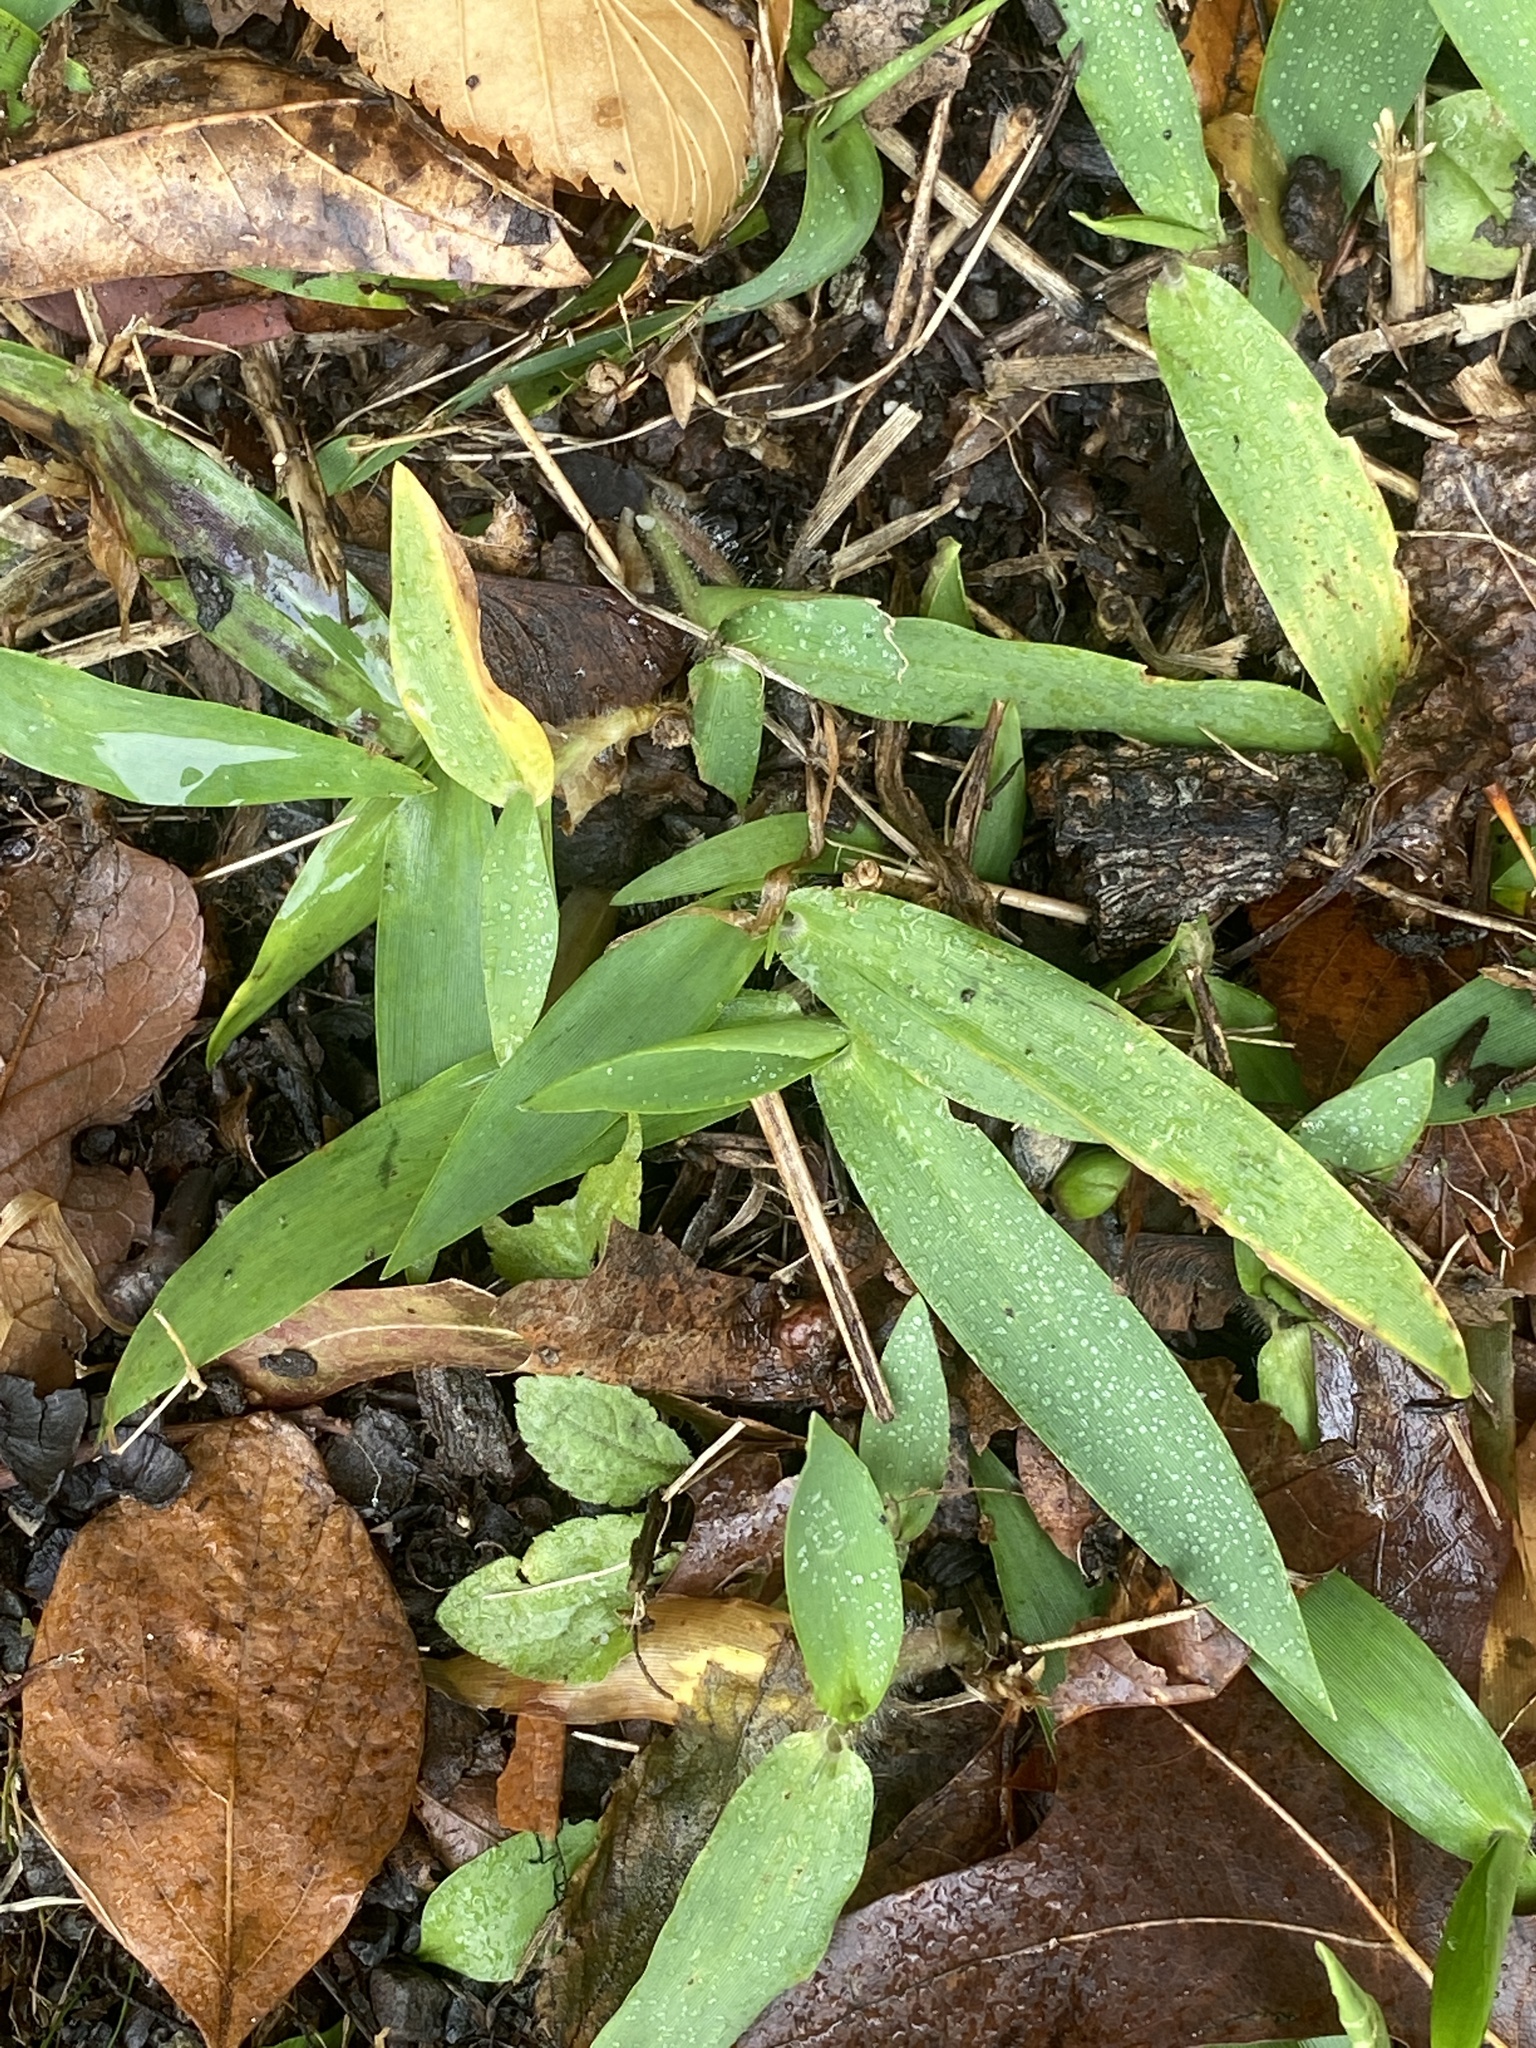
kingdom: Plantae
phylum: Tracheophyta
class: Liliopsida
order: Poales
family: Poaceae
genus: Dichanthelium
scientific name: Dichanthelium clandestinum
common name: Deer-tongue grass
